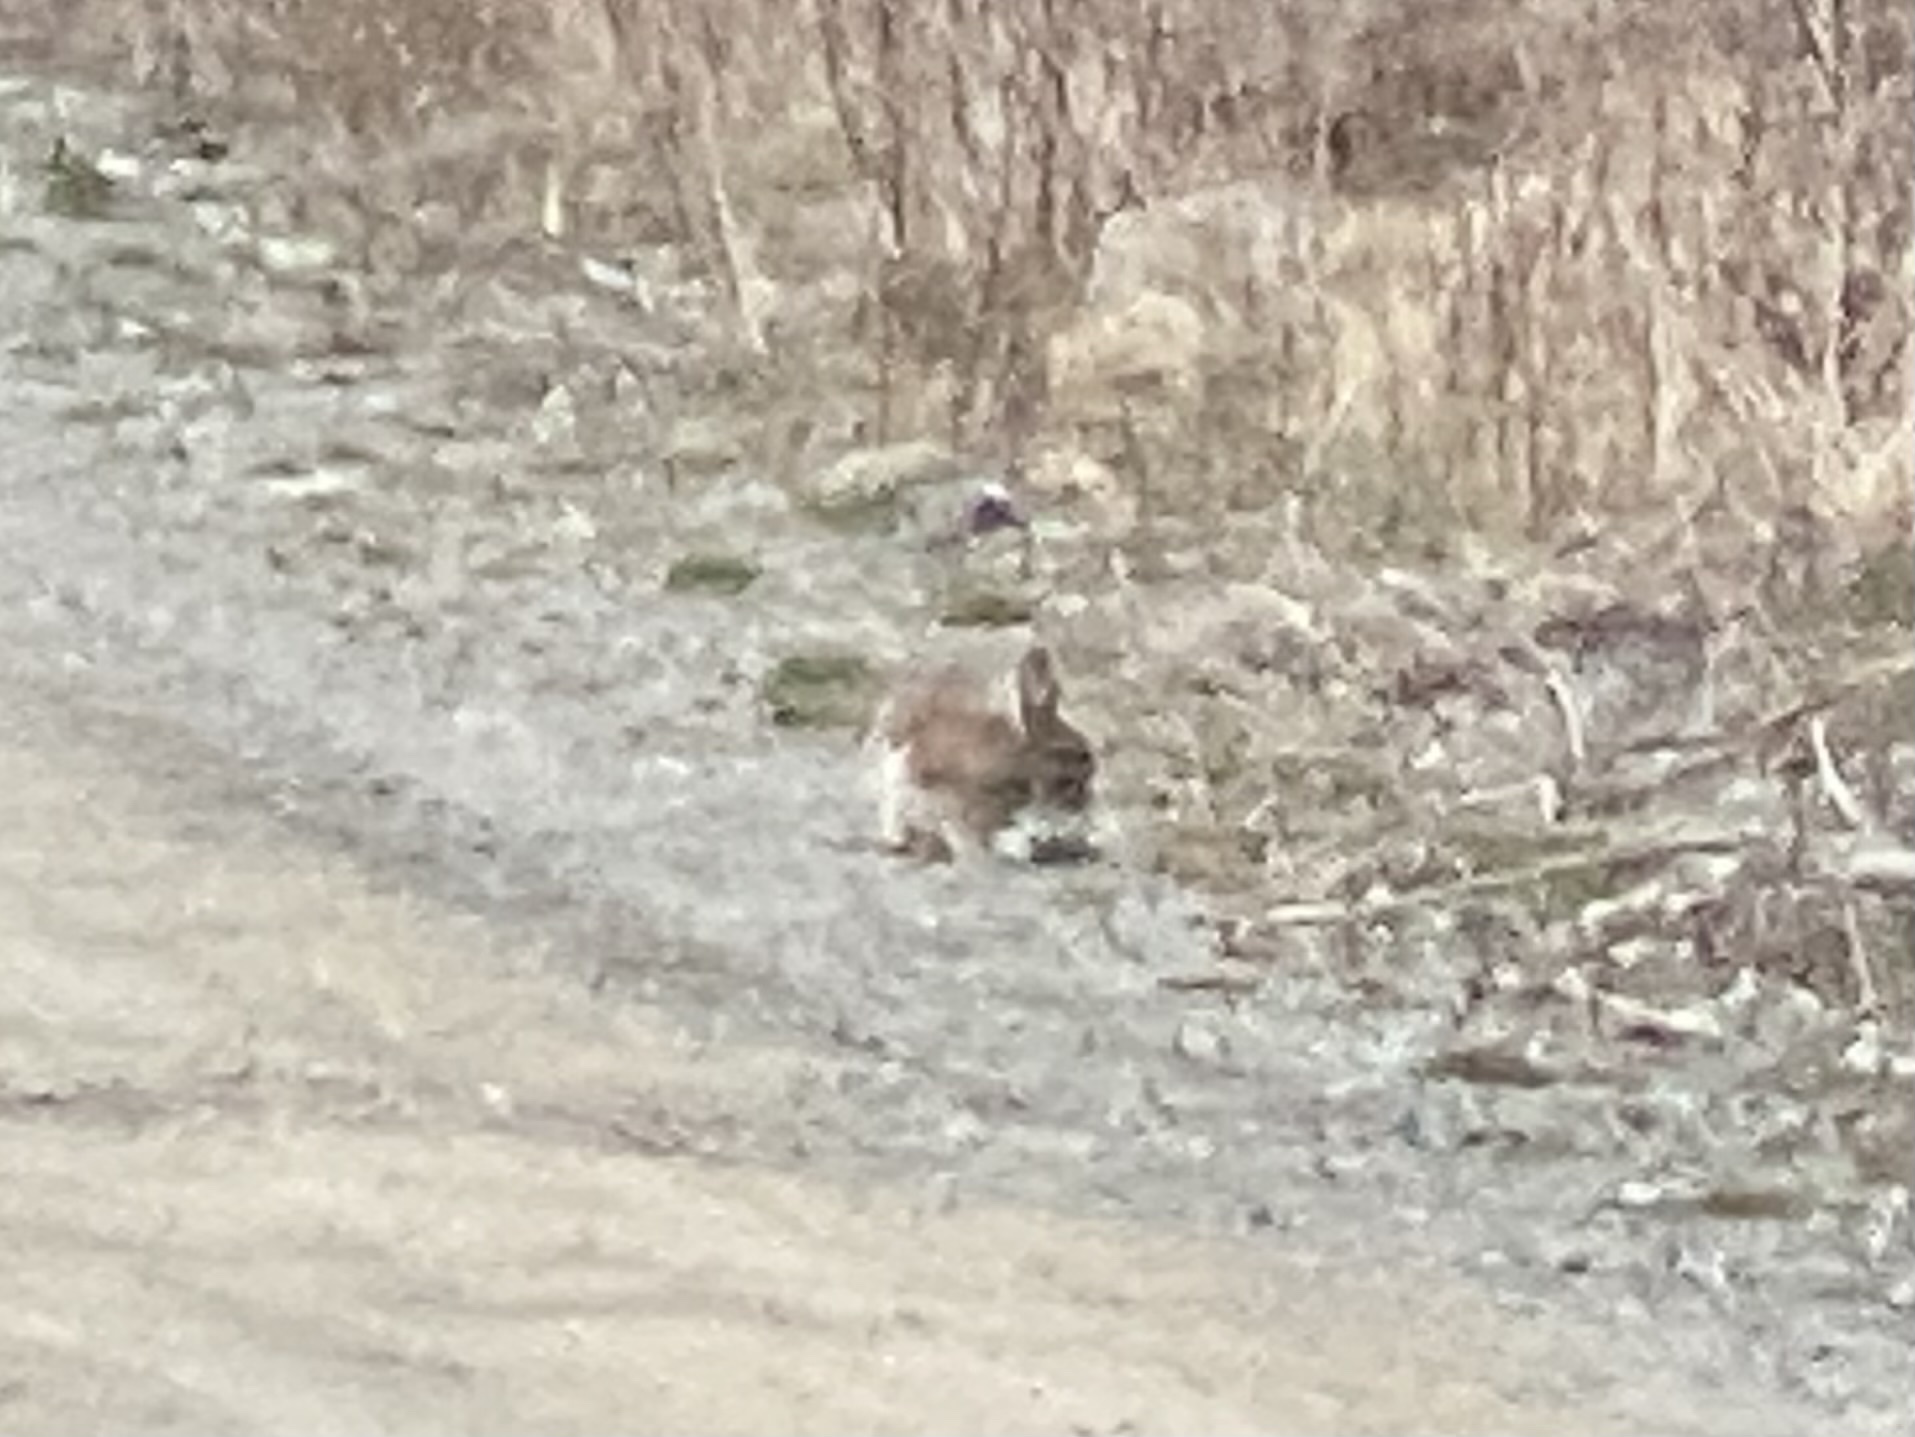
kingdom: Animalia
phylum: Chordata
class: Mammalia
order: Lagomorpha
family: Leporidae
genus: Lepus
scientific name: Lepus americanus
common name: Snowshoe hare
